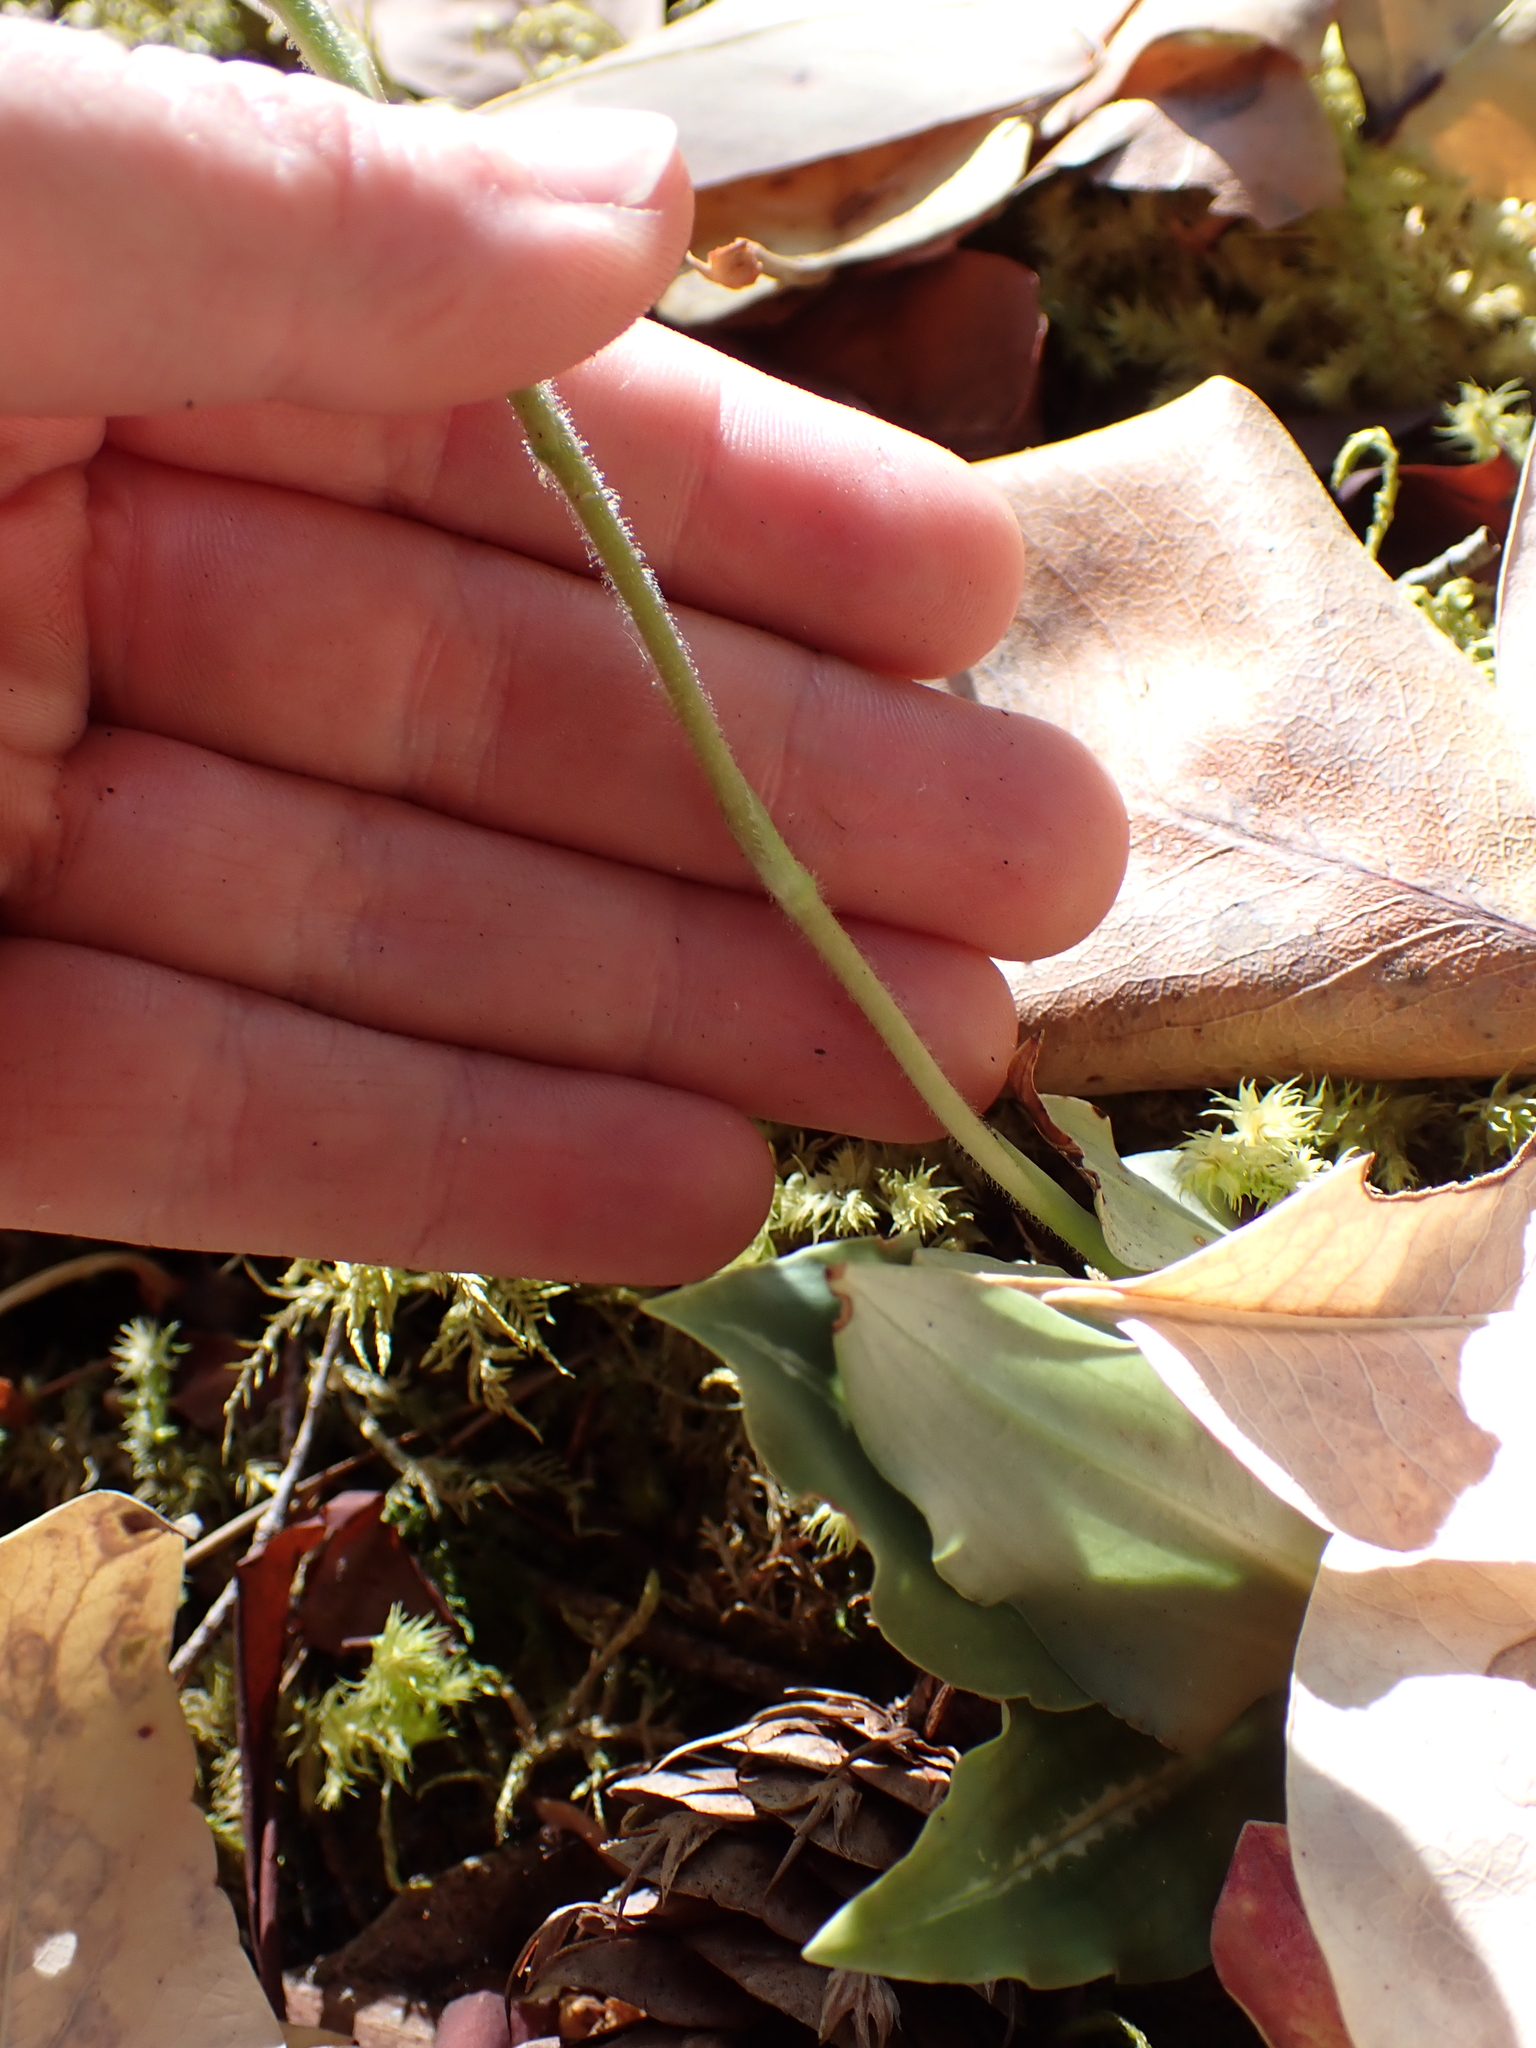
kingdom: Plantae
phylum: Tracheophyta
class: Liliopsida
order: Asparagales
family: Orchidaceae
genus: Goodyera
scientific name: Goodyera oblongifolia
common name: Giant rattlesnake-plantain
